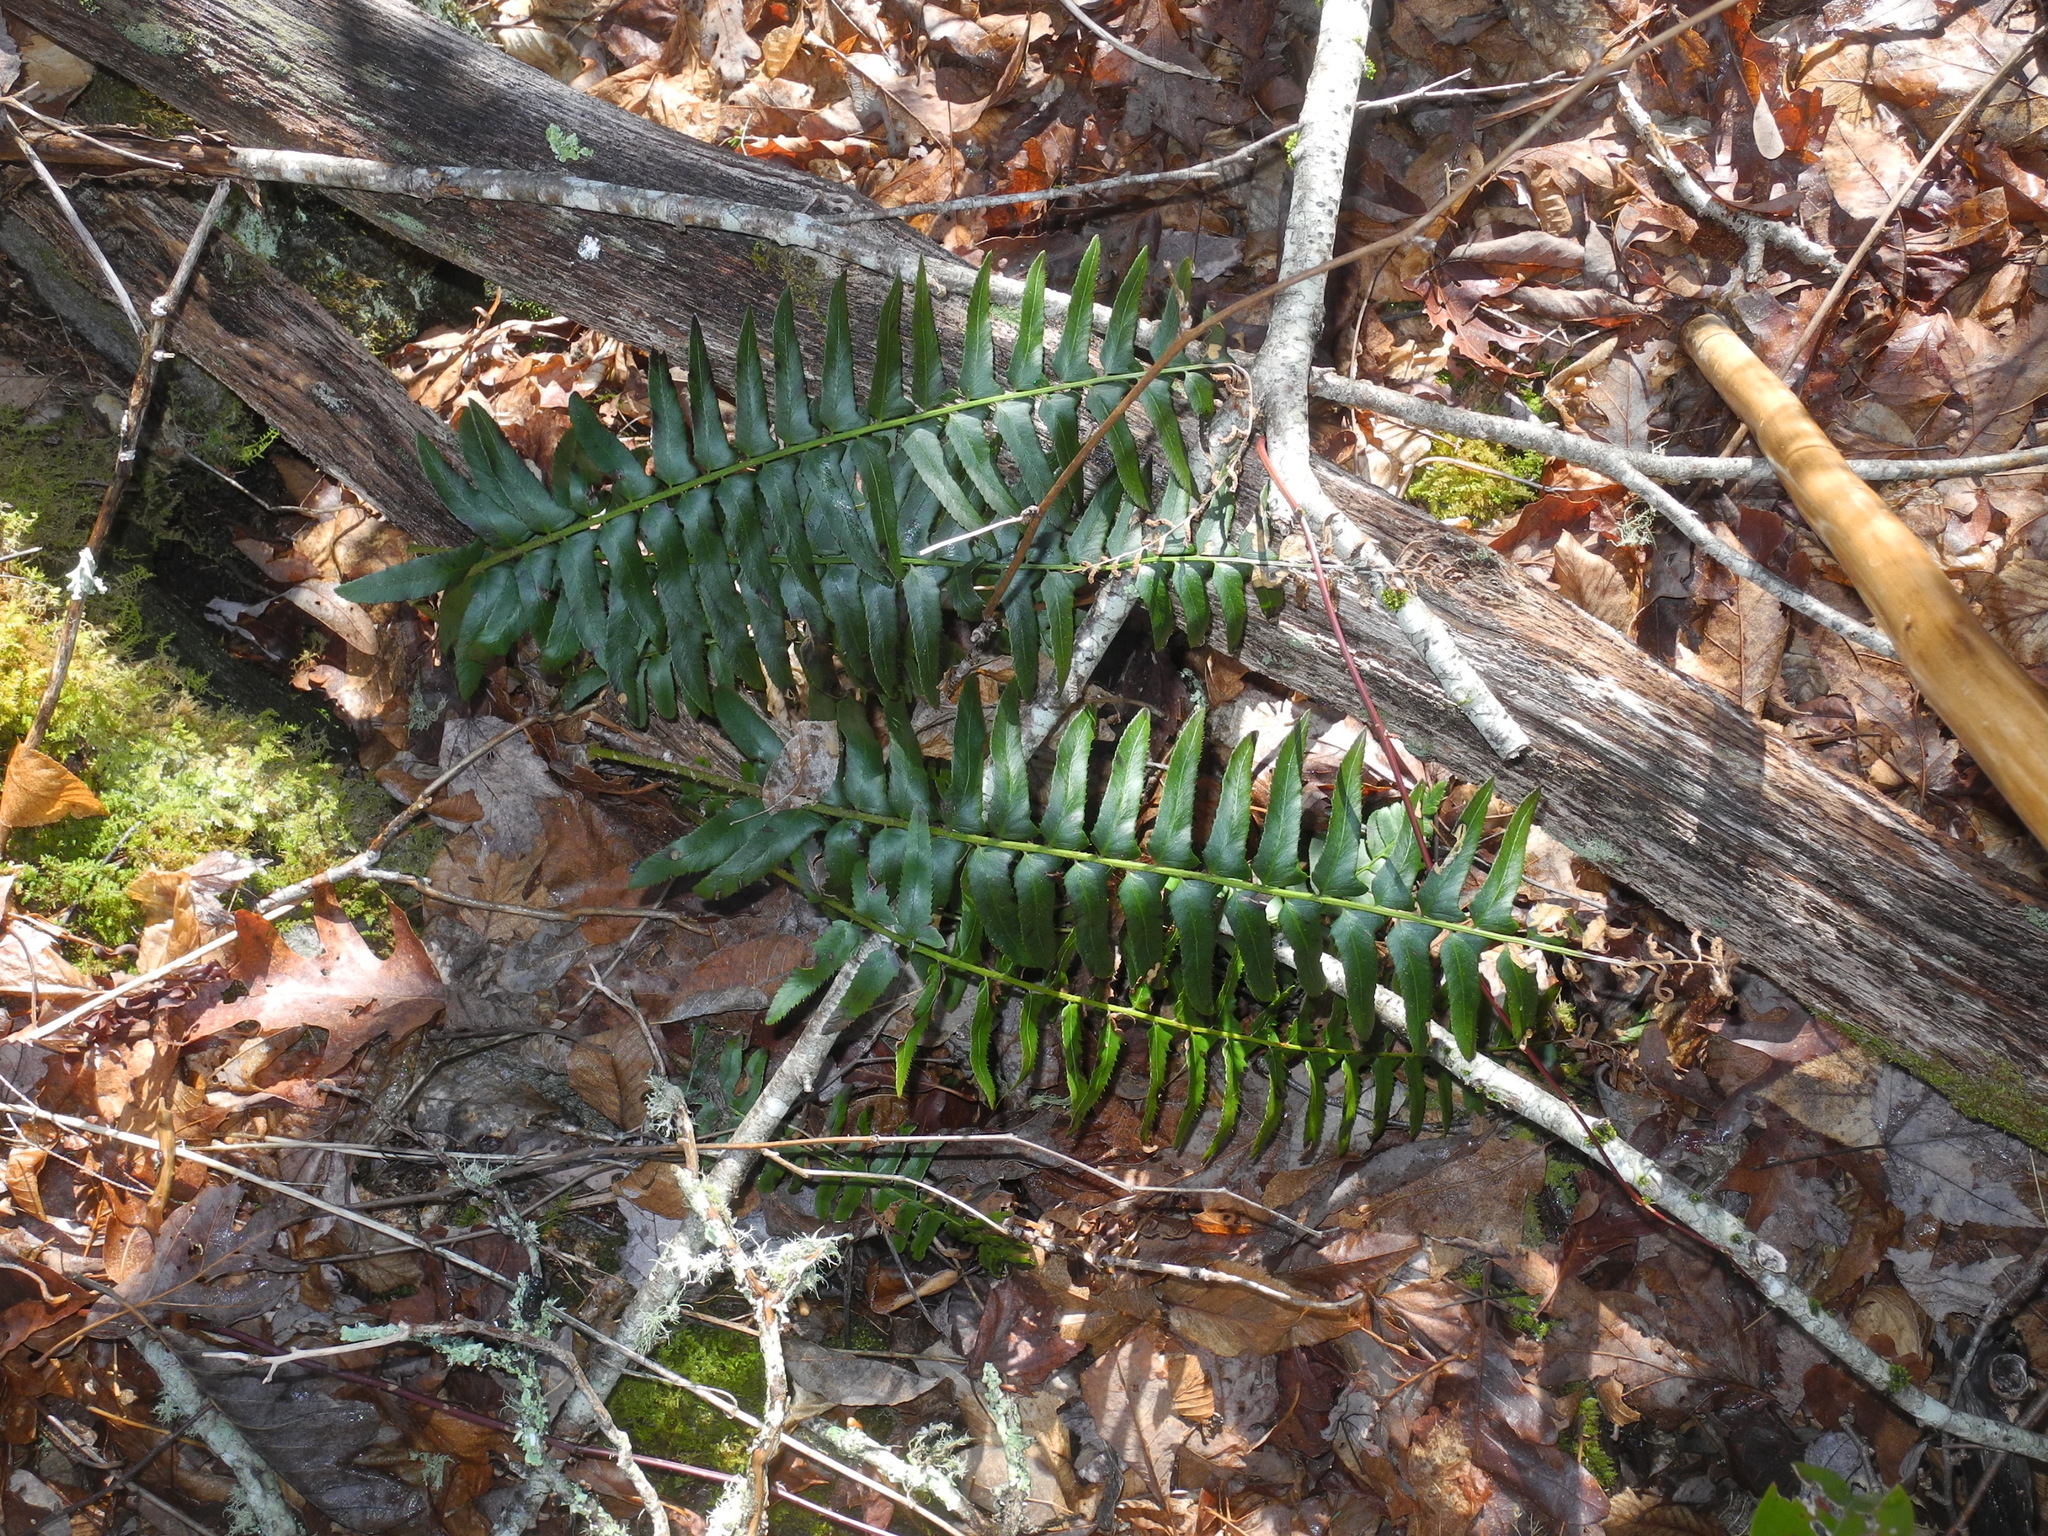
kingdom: Plantae
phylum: Tracheophyta
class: Polypodiopsida
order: Polypodiales
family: Dryopteridaceae
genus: Polystichum
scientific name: Polystichum acrostichoides
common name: Christmas fern
